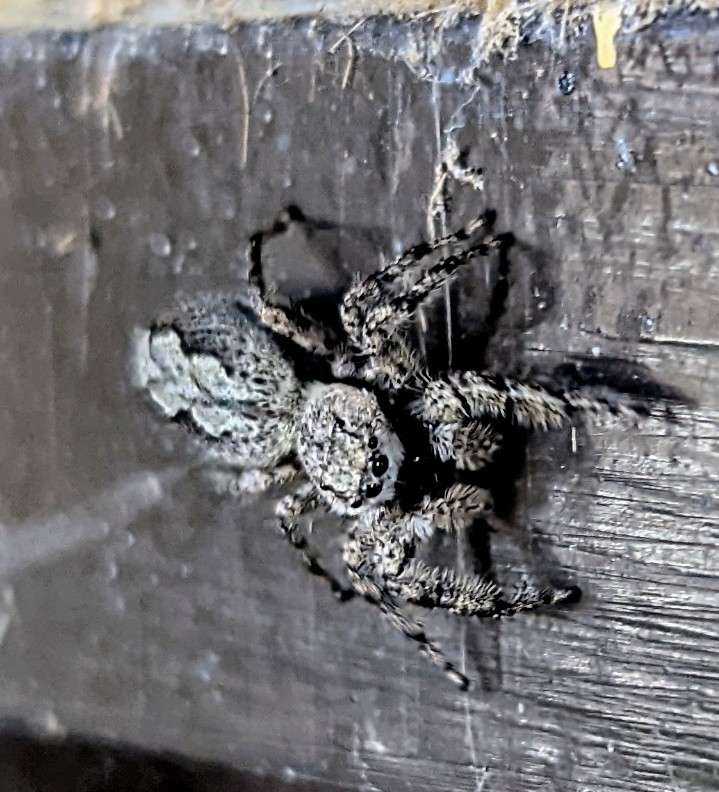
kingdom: Animalia
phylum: Arthropoda
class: Arachnida
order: Araneae
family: Salticidae
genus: Platycryptus
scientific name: Platycryptus undatus
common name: Tan jumping spider
